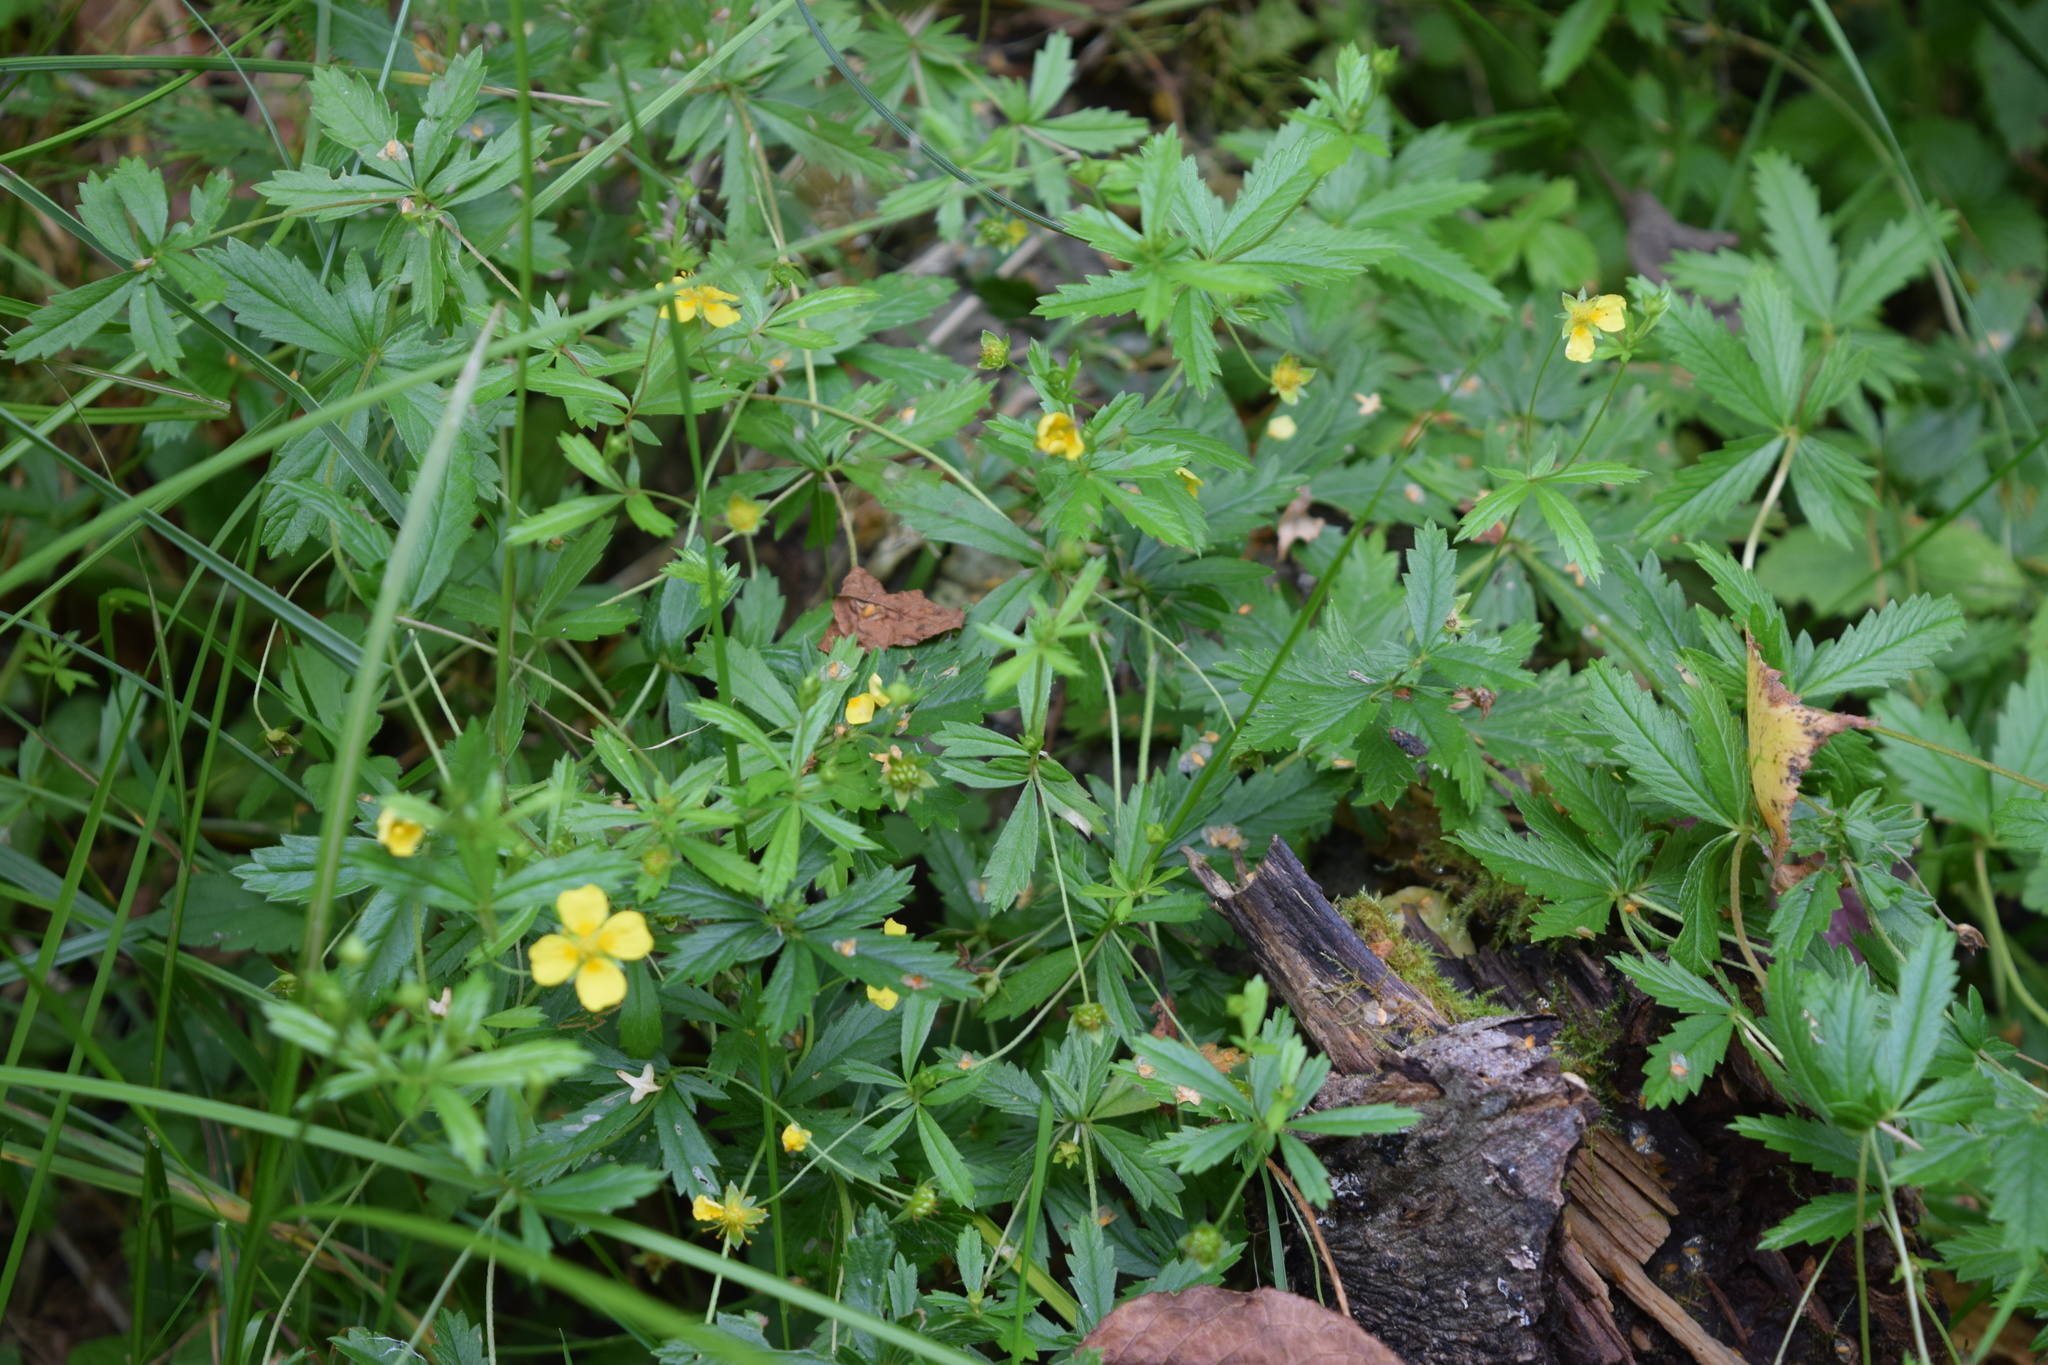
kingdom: Plantae
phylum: Tracheophyta
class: Magnoliopsida
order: Rosales
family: Rosaceae
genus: Potentilla
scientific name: Potentilla erecta
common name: Tormentil
